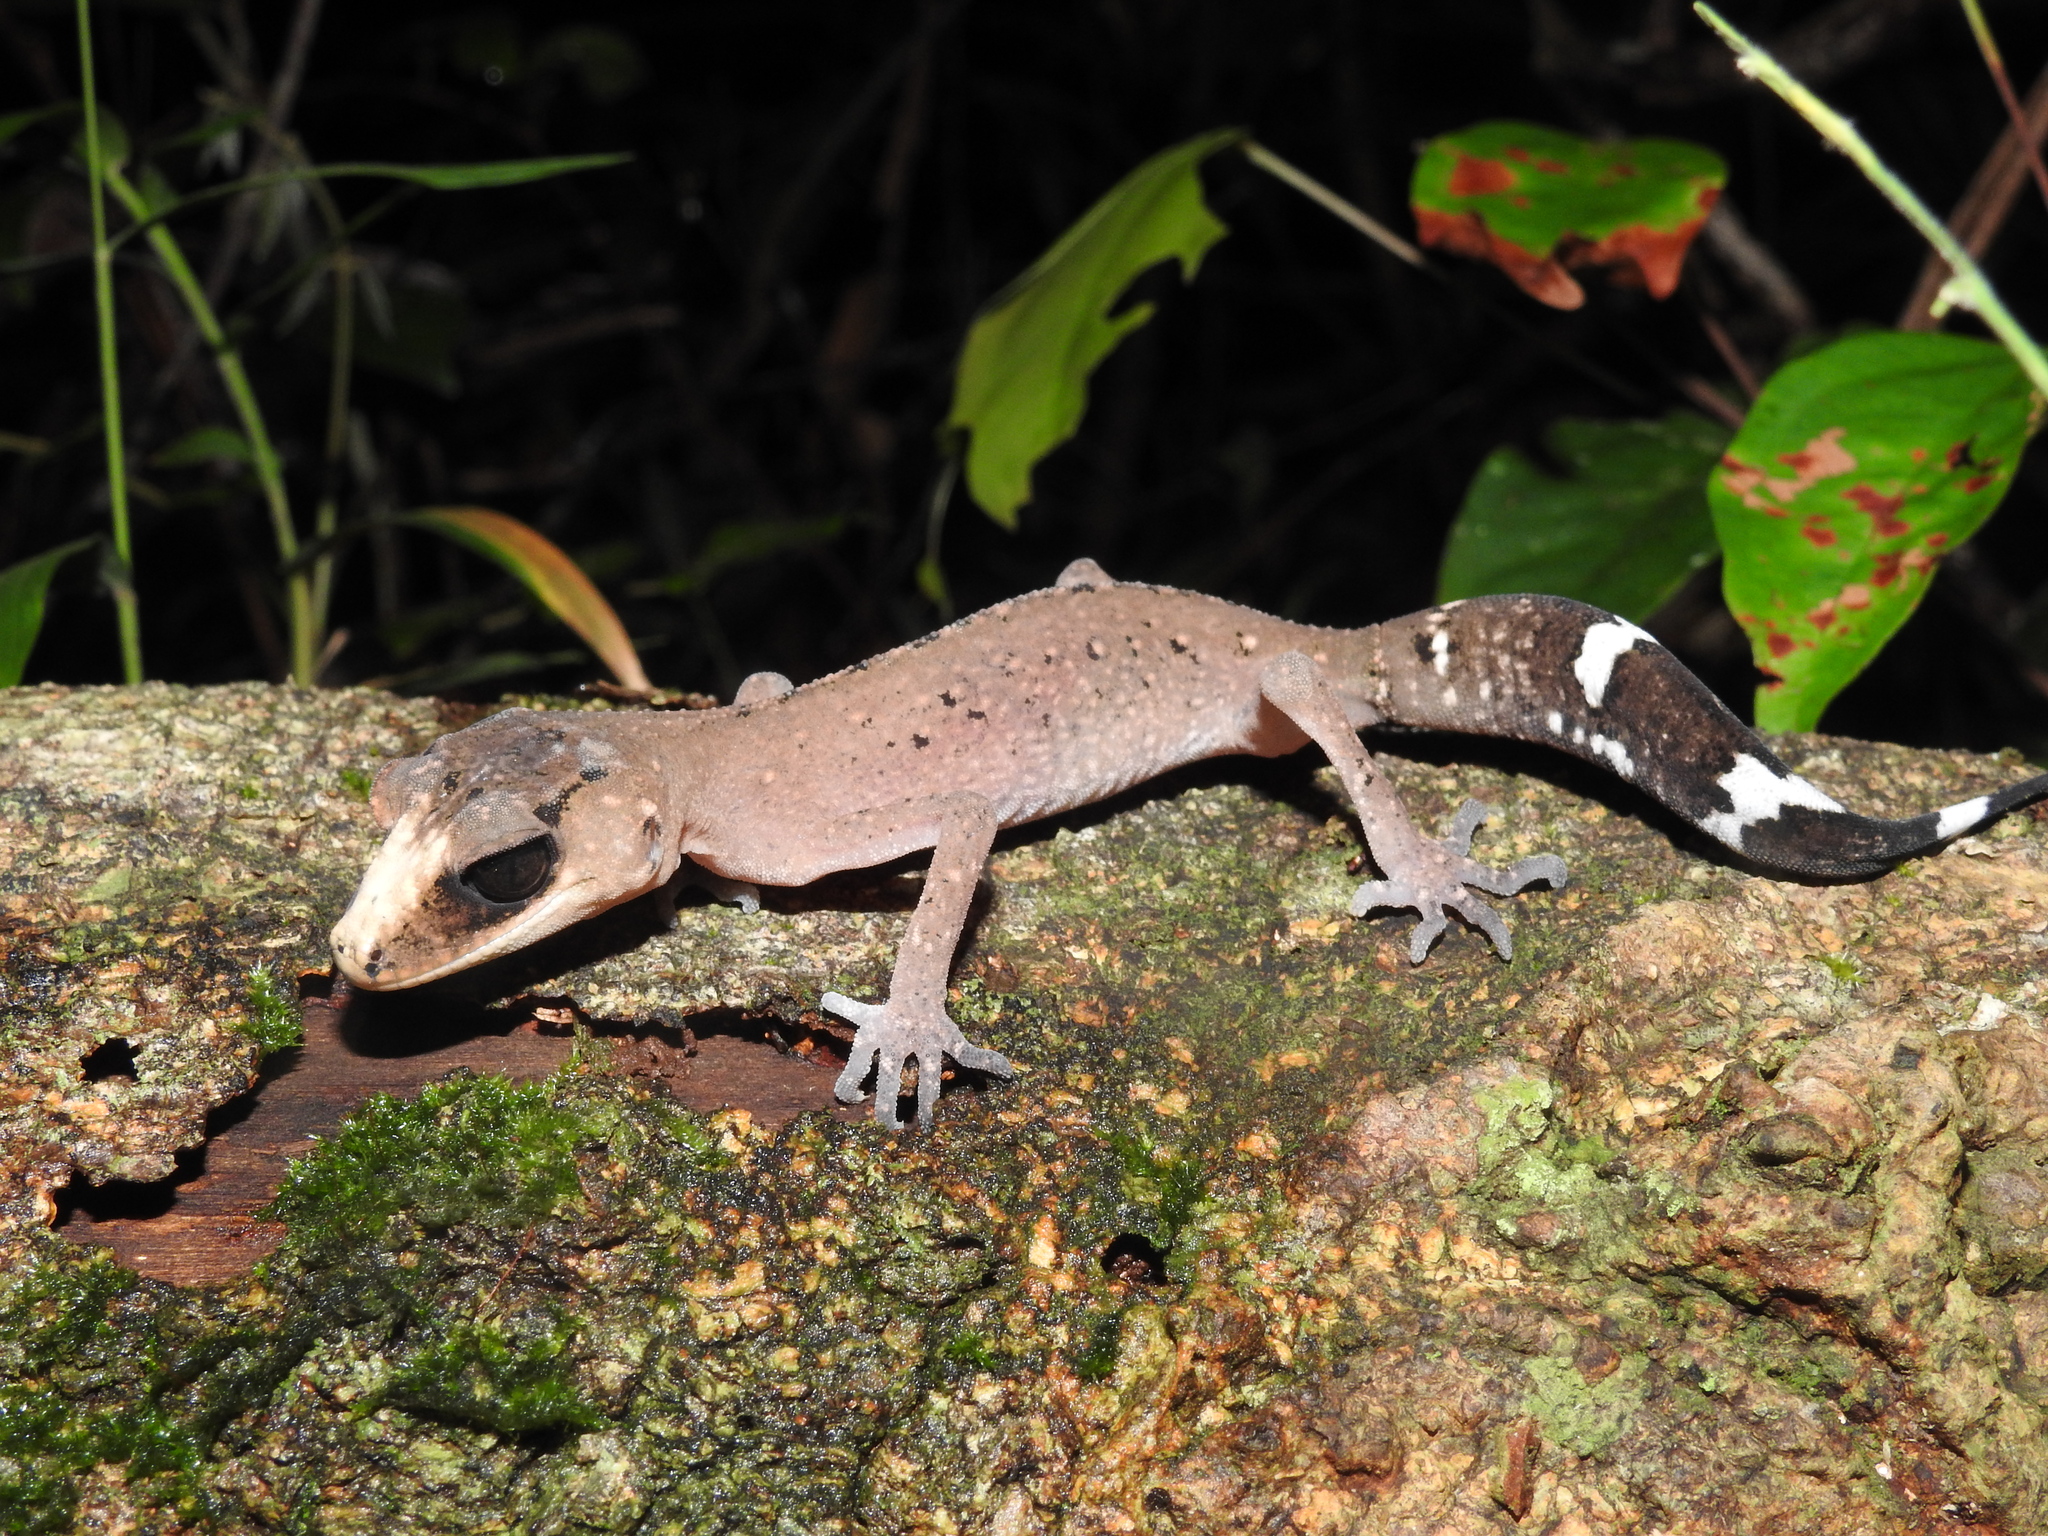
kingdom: Animalia
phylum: Chordata
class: Squamata
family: Carphodactylidae
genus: Carphodactylus
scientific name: Carphodactylus laevis
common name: Chameleon gecko
